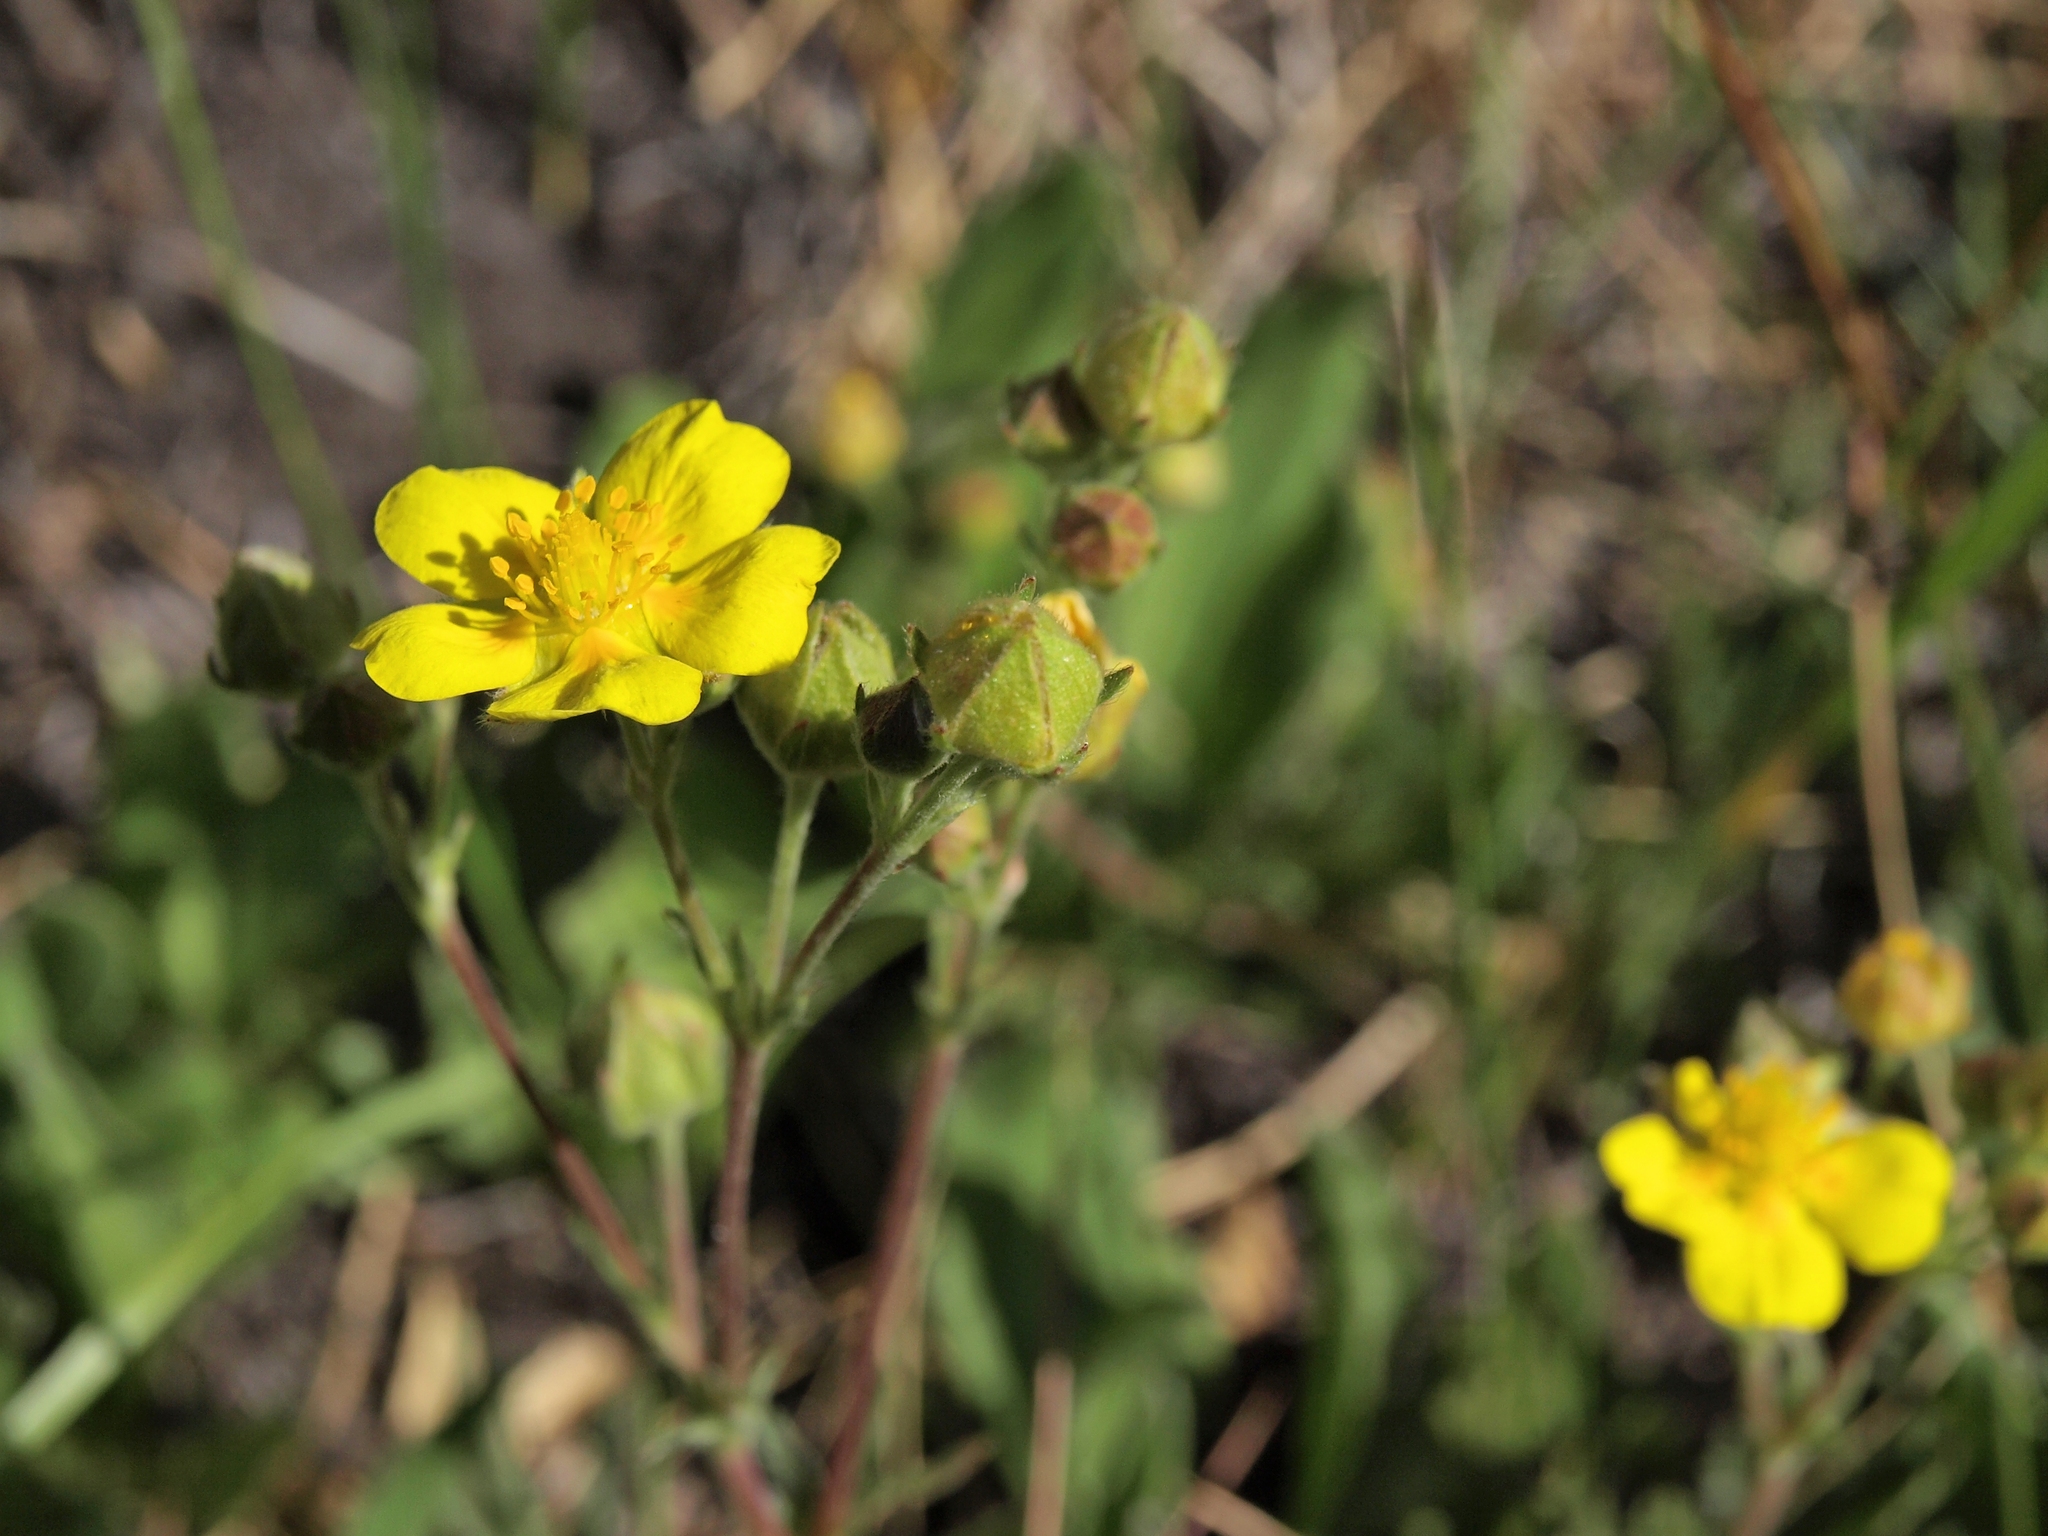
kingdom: Plantae
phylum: Tracheophyta
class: Magnoliopsida
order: Rosales
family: Rosaceae
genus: Potentilla
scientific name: Potentilla gracilis
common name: Graceful cinquefoil
